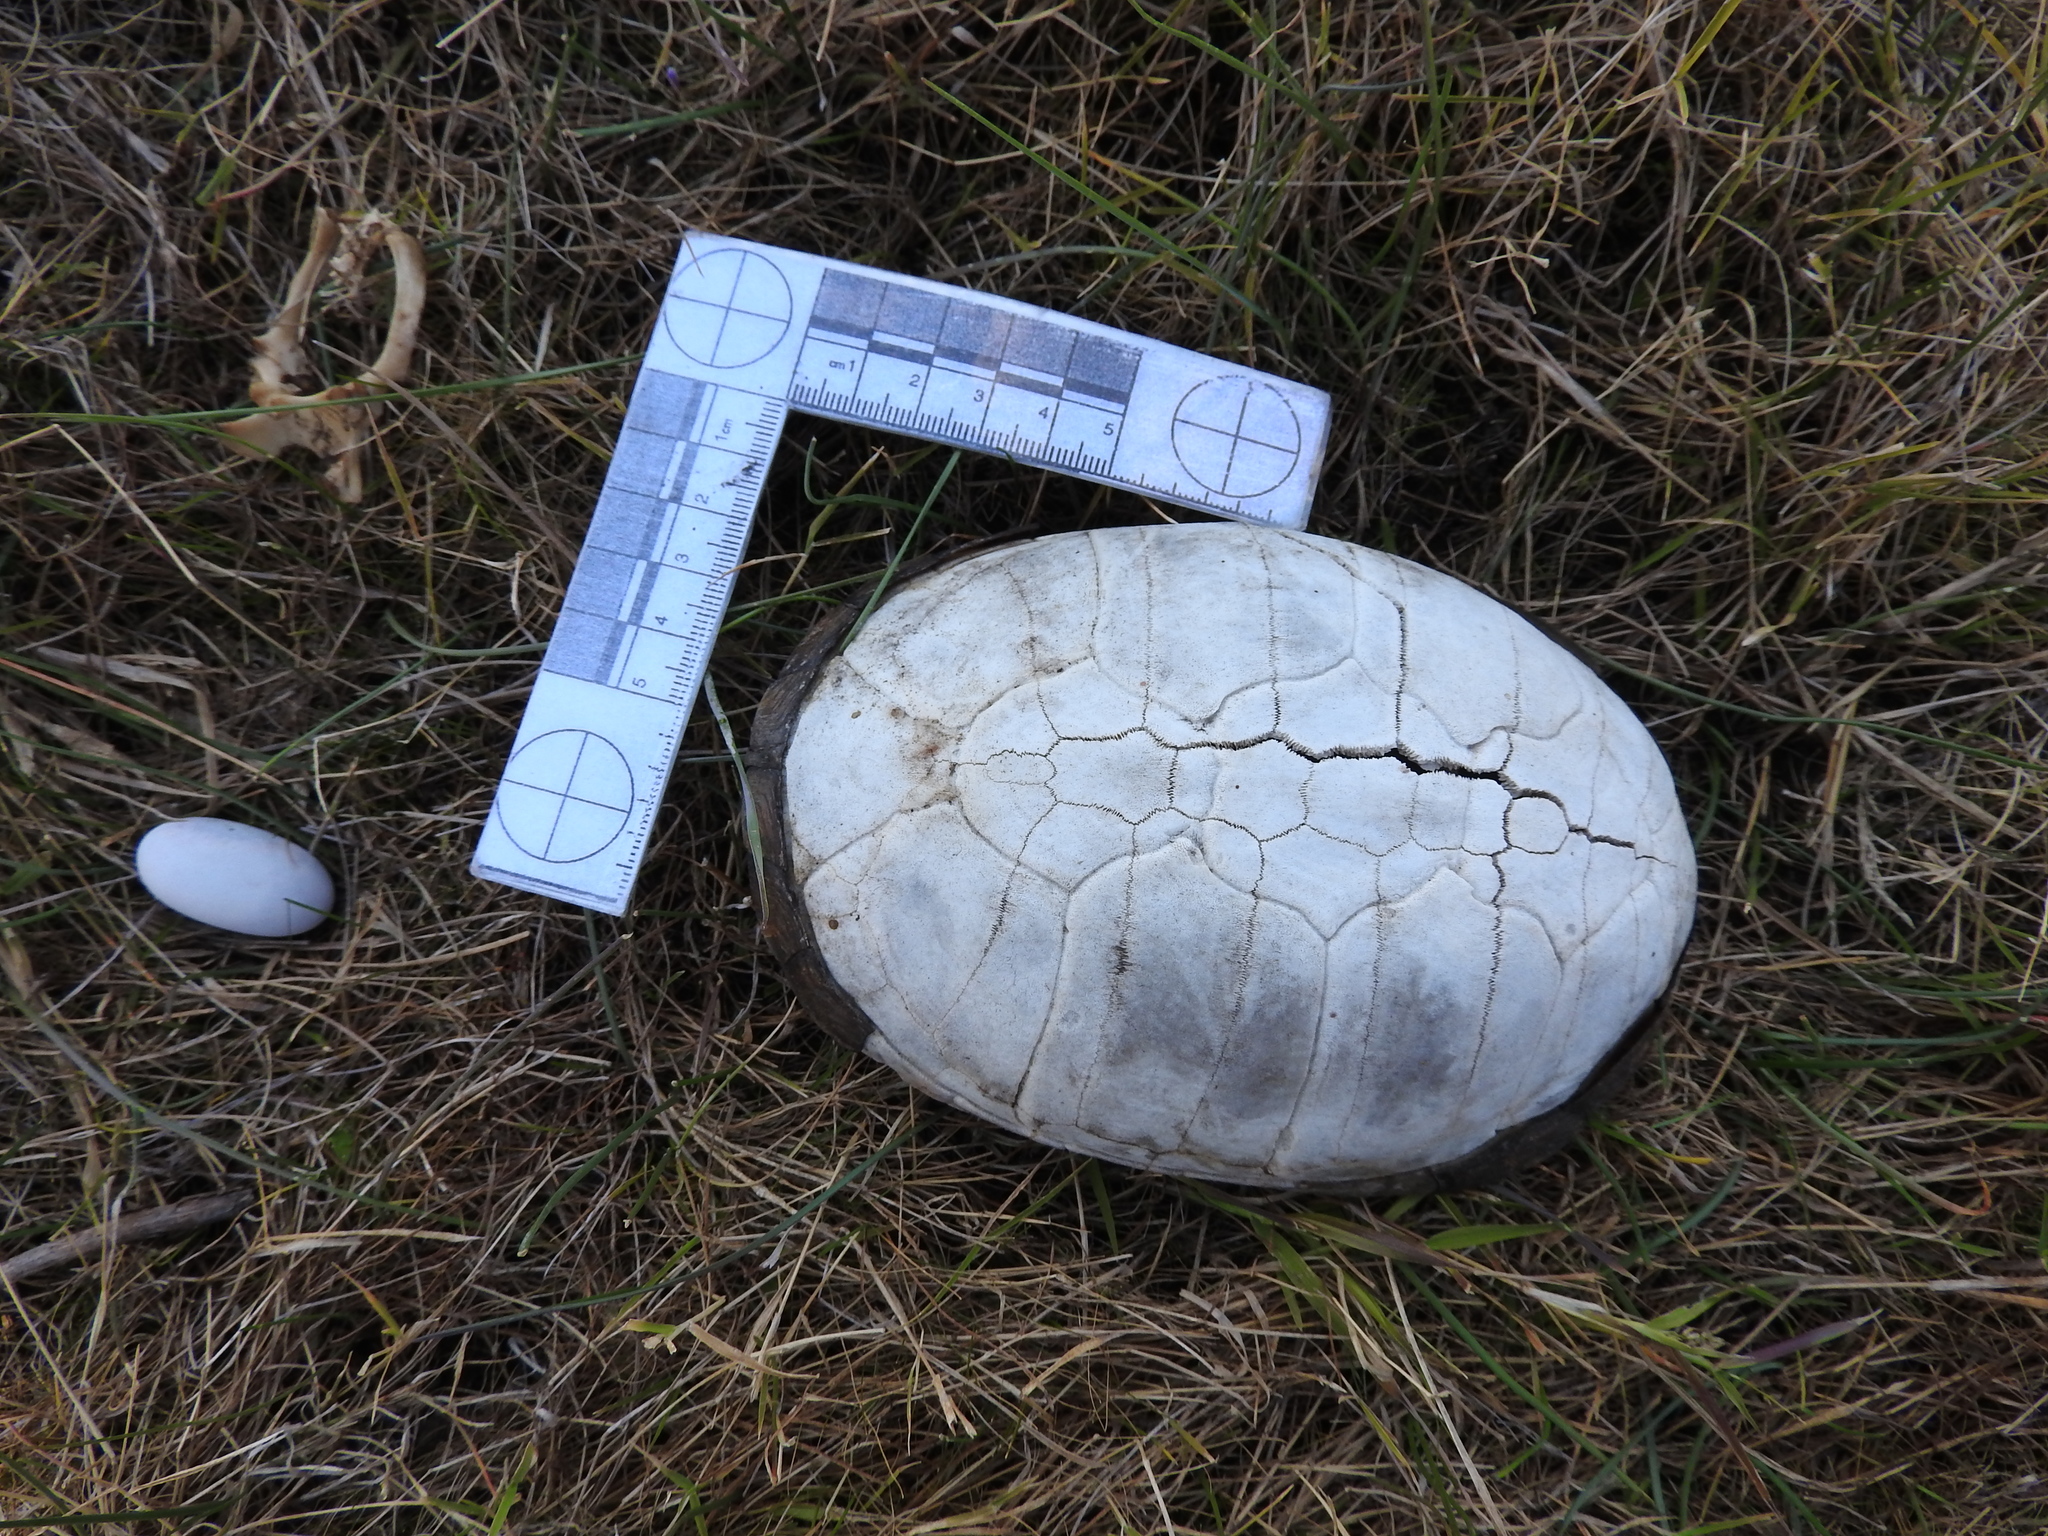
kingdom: Animalia
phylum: Chordata
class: Testudines
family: Kinosternidae
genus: Kinosternon
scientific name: Kinosternon hirtipes
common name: Rough-footed mud turtle
